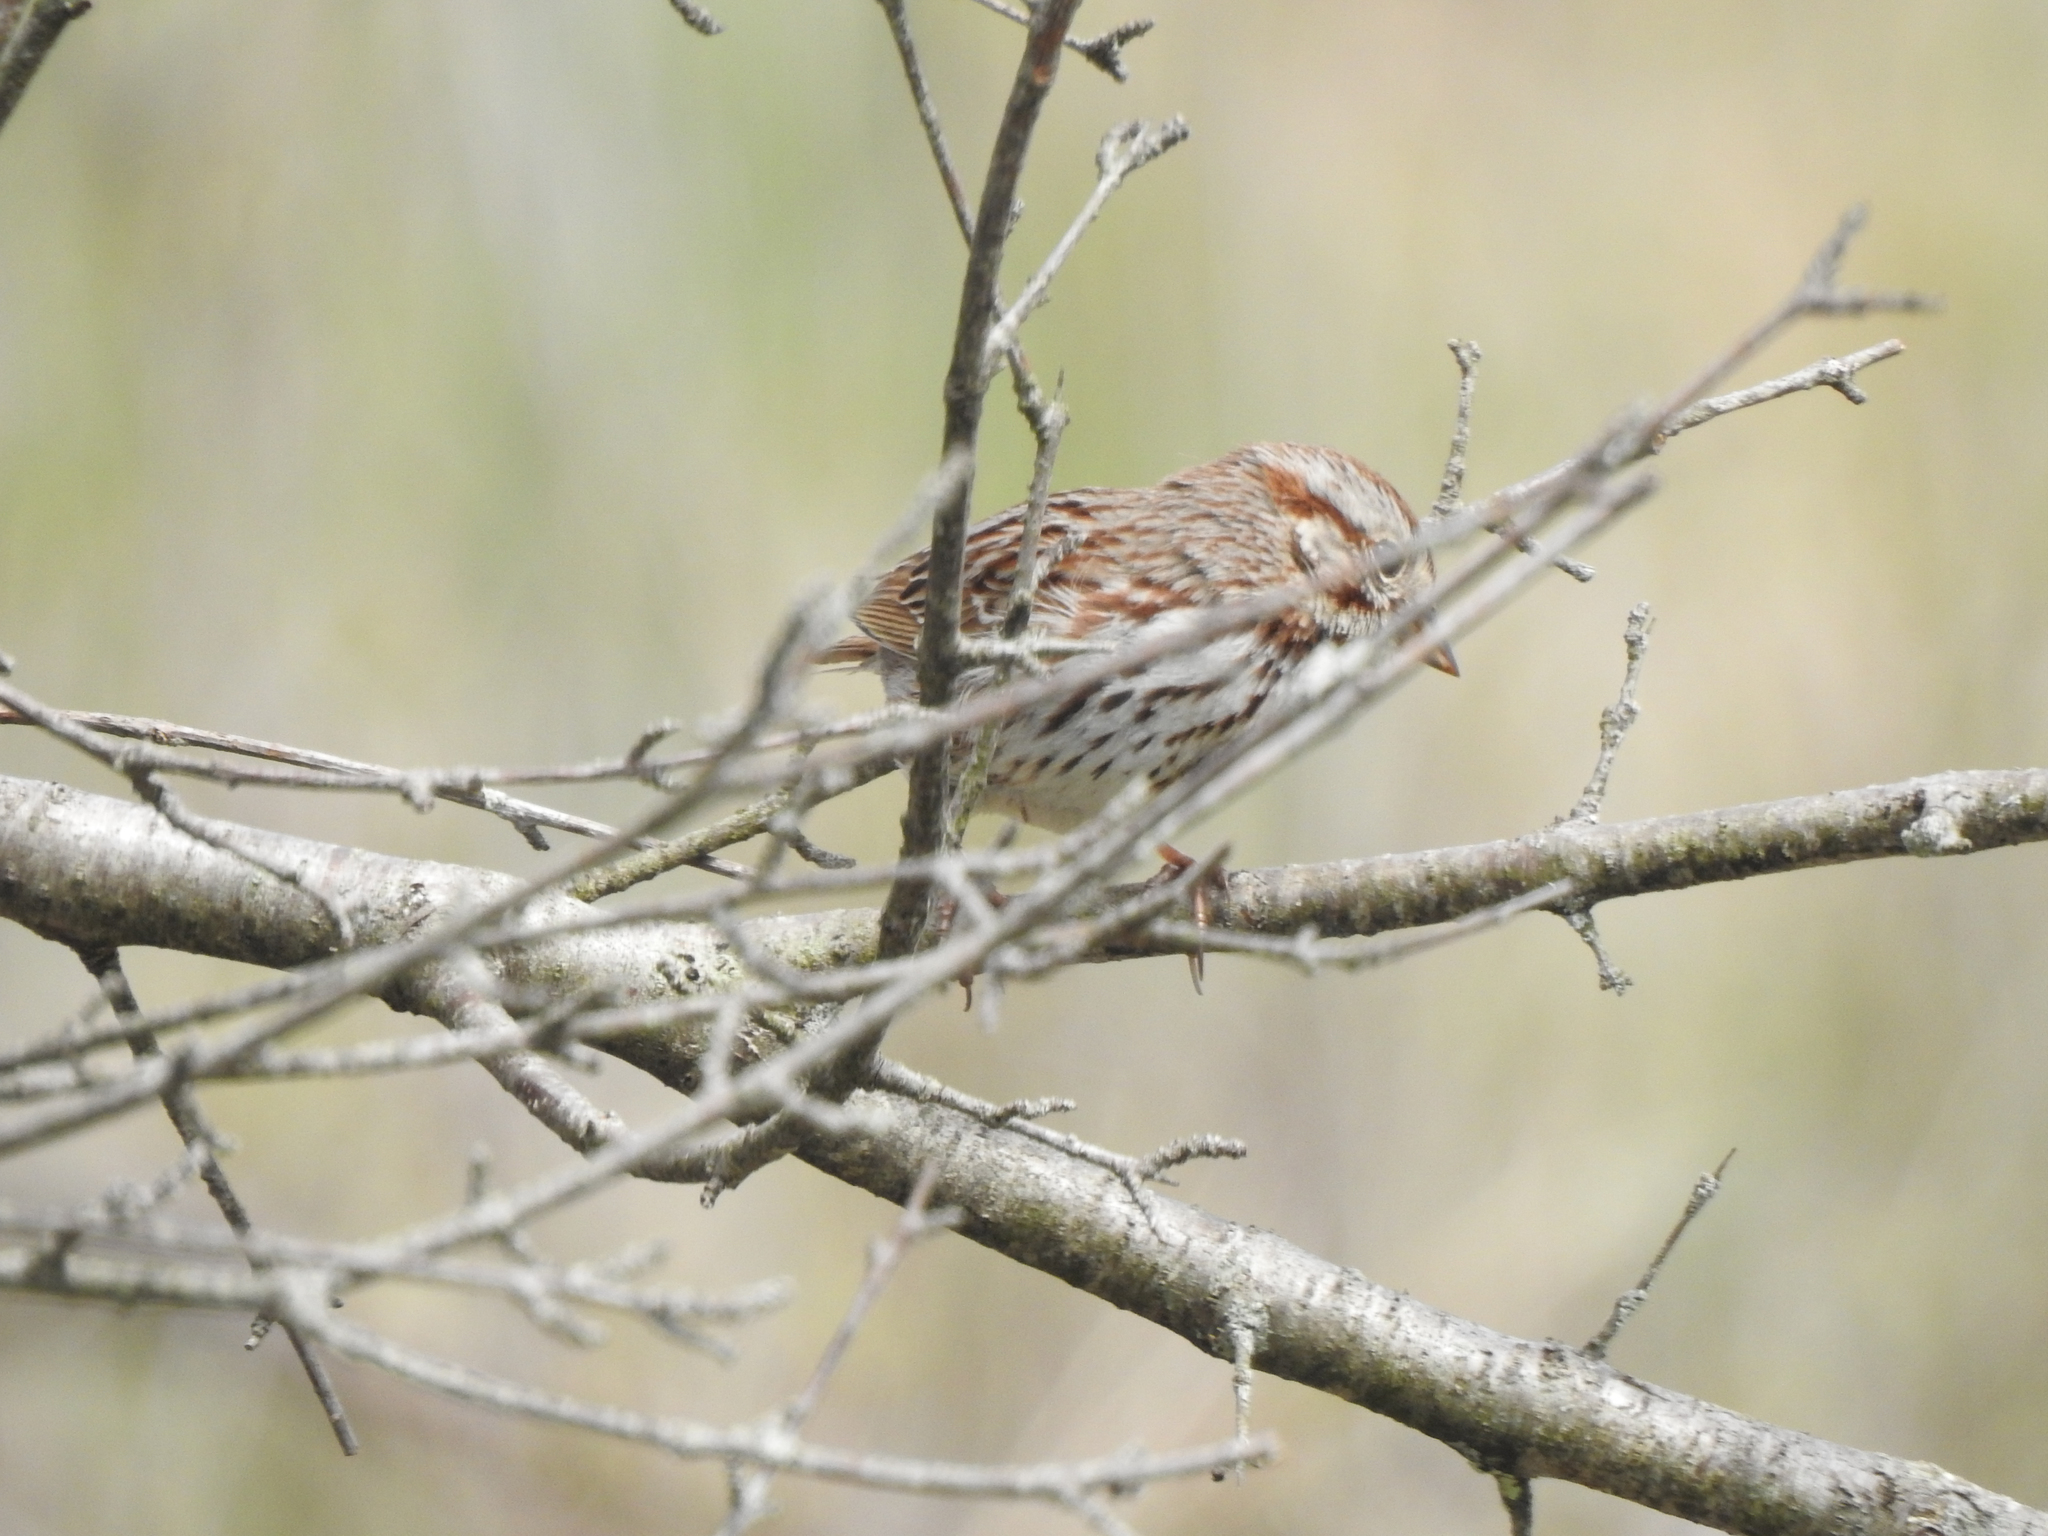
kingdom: Animalia
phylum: Chordata
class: Aves
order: Passeriformes
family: Passerellidae
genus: Melospiza
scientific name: Melospiza melodia
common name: Song sparrow
